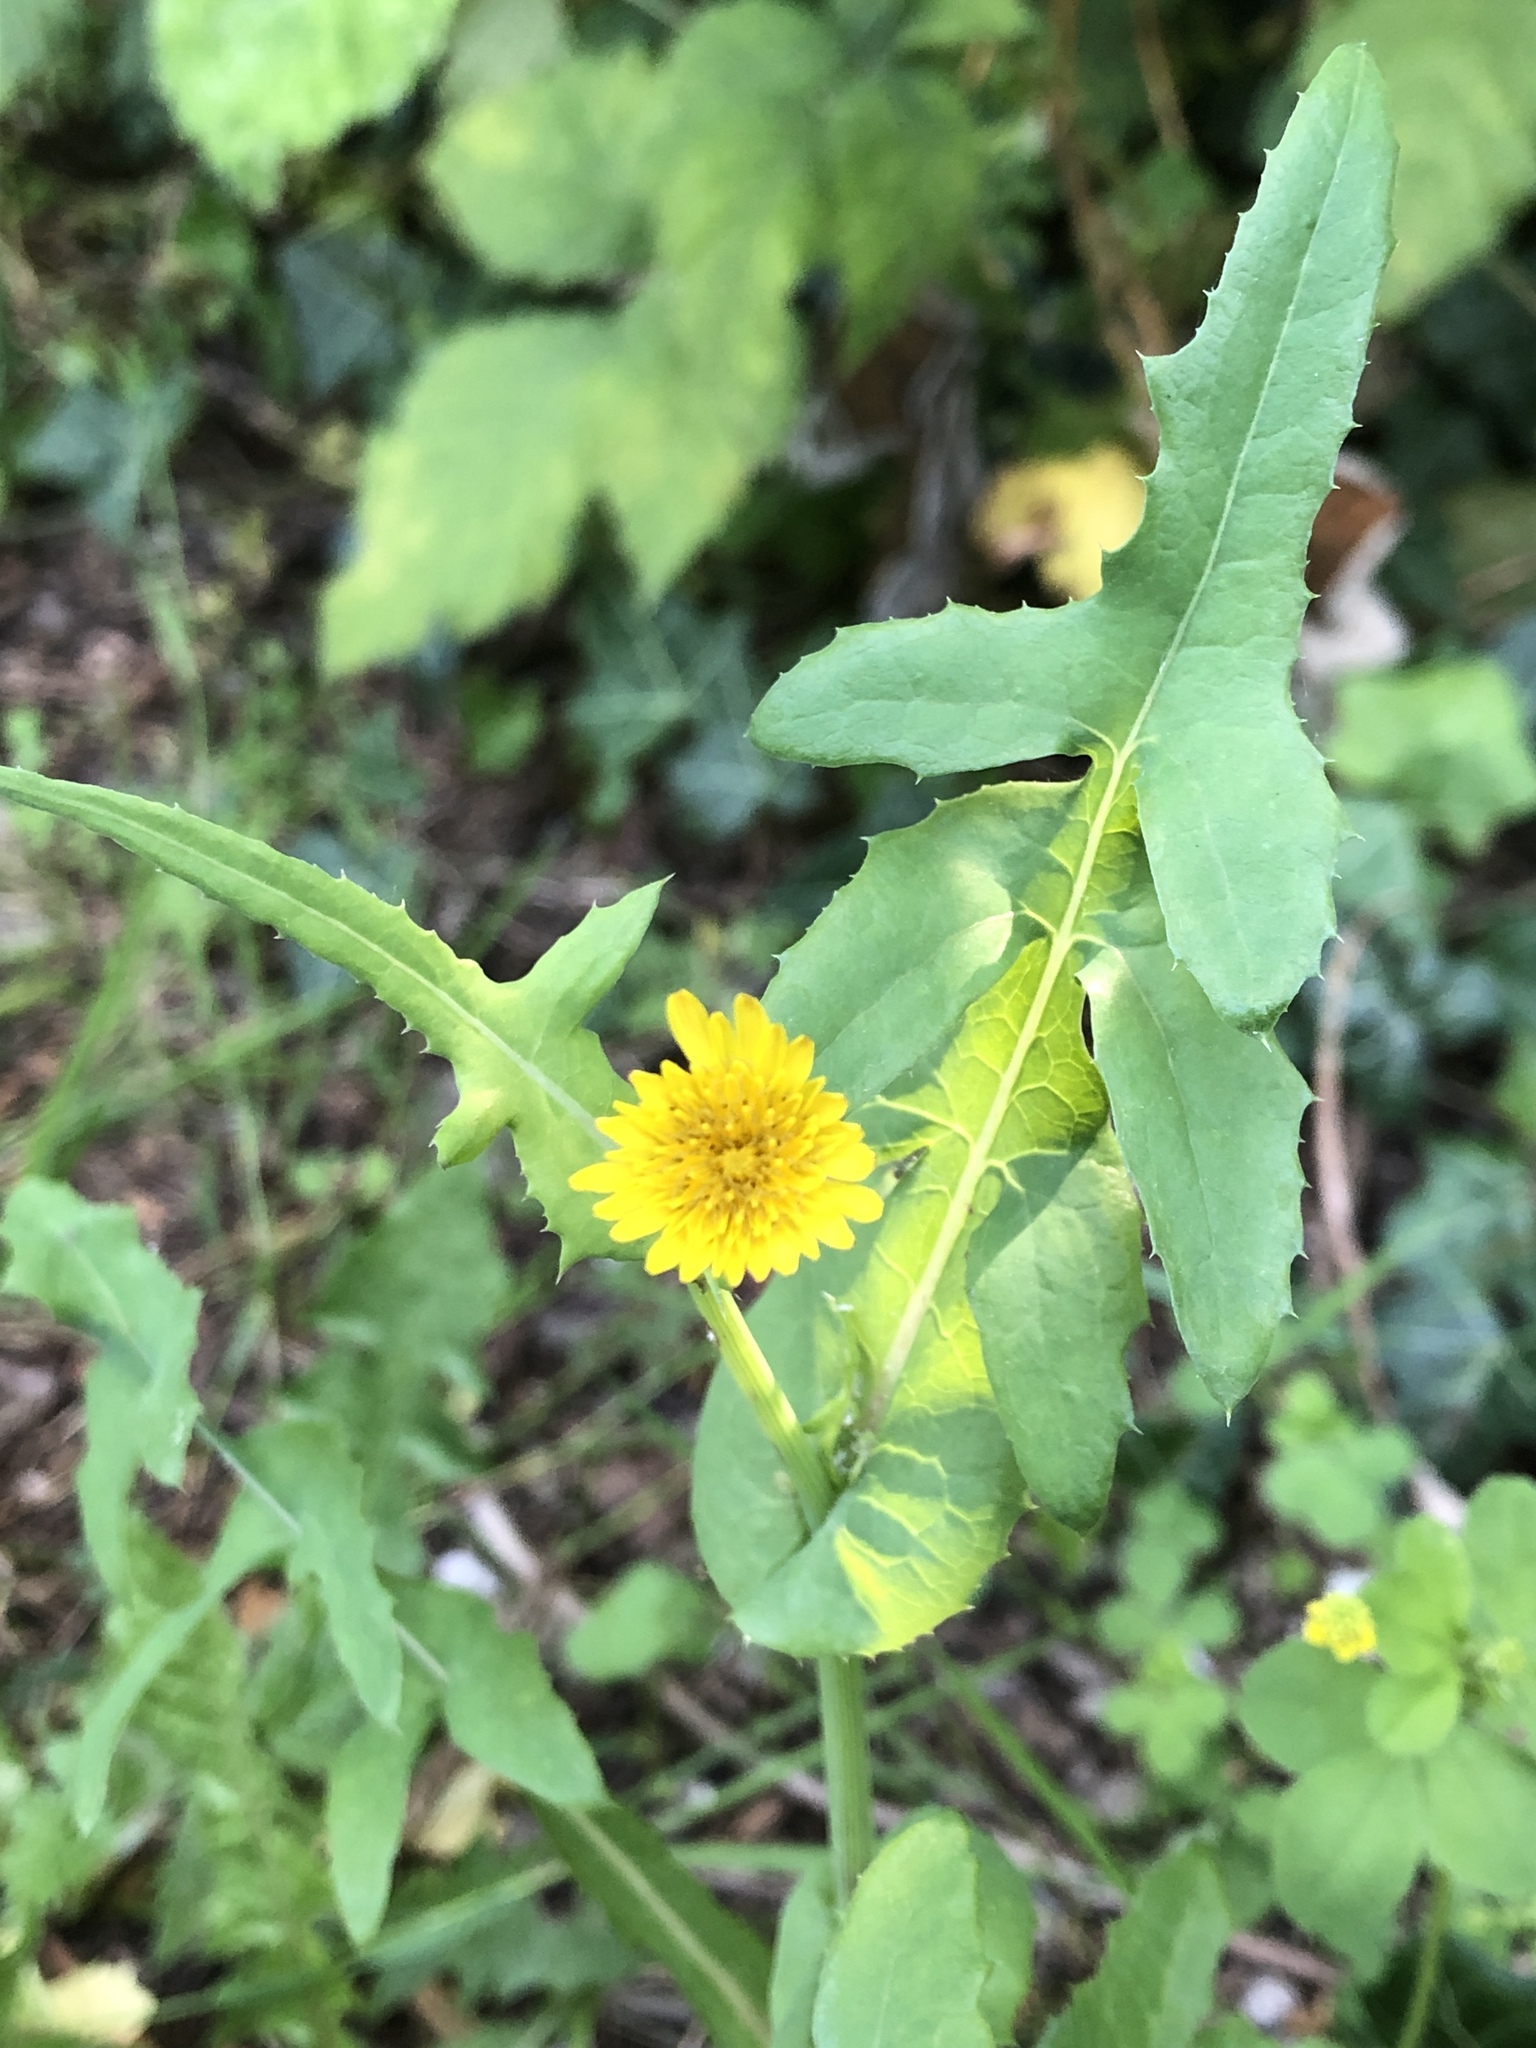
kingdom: Plantae
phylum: Tracheophyta
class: Magnoliopsida
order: Asterales
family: Asteraceae
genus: Sonchus
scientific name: Sonchus oleraceus
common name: Common sowthistle
